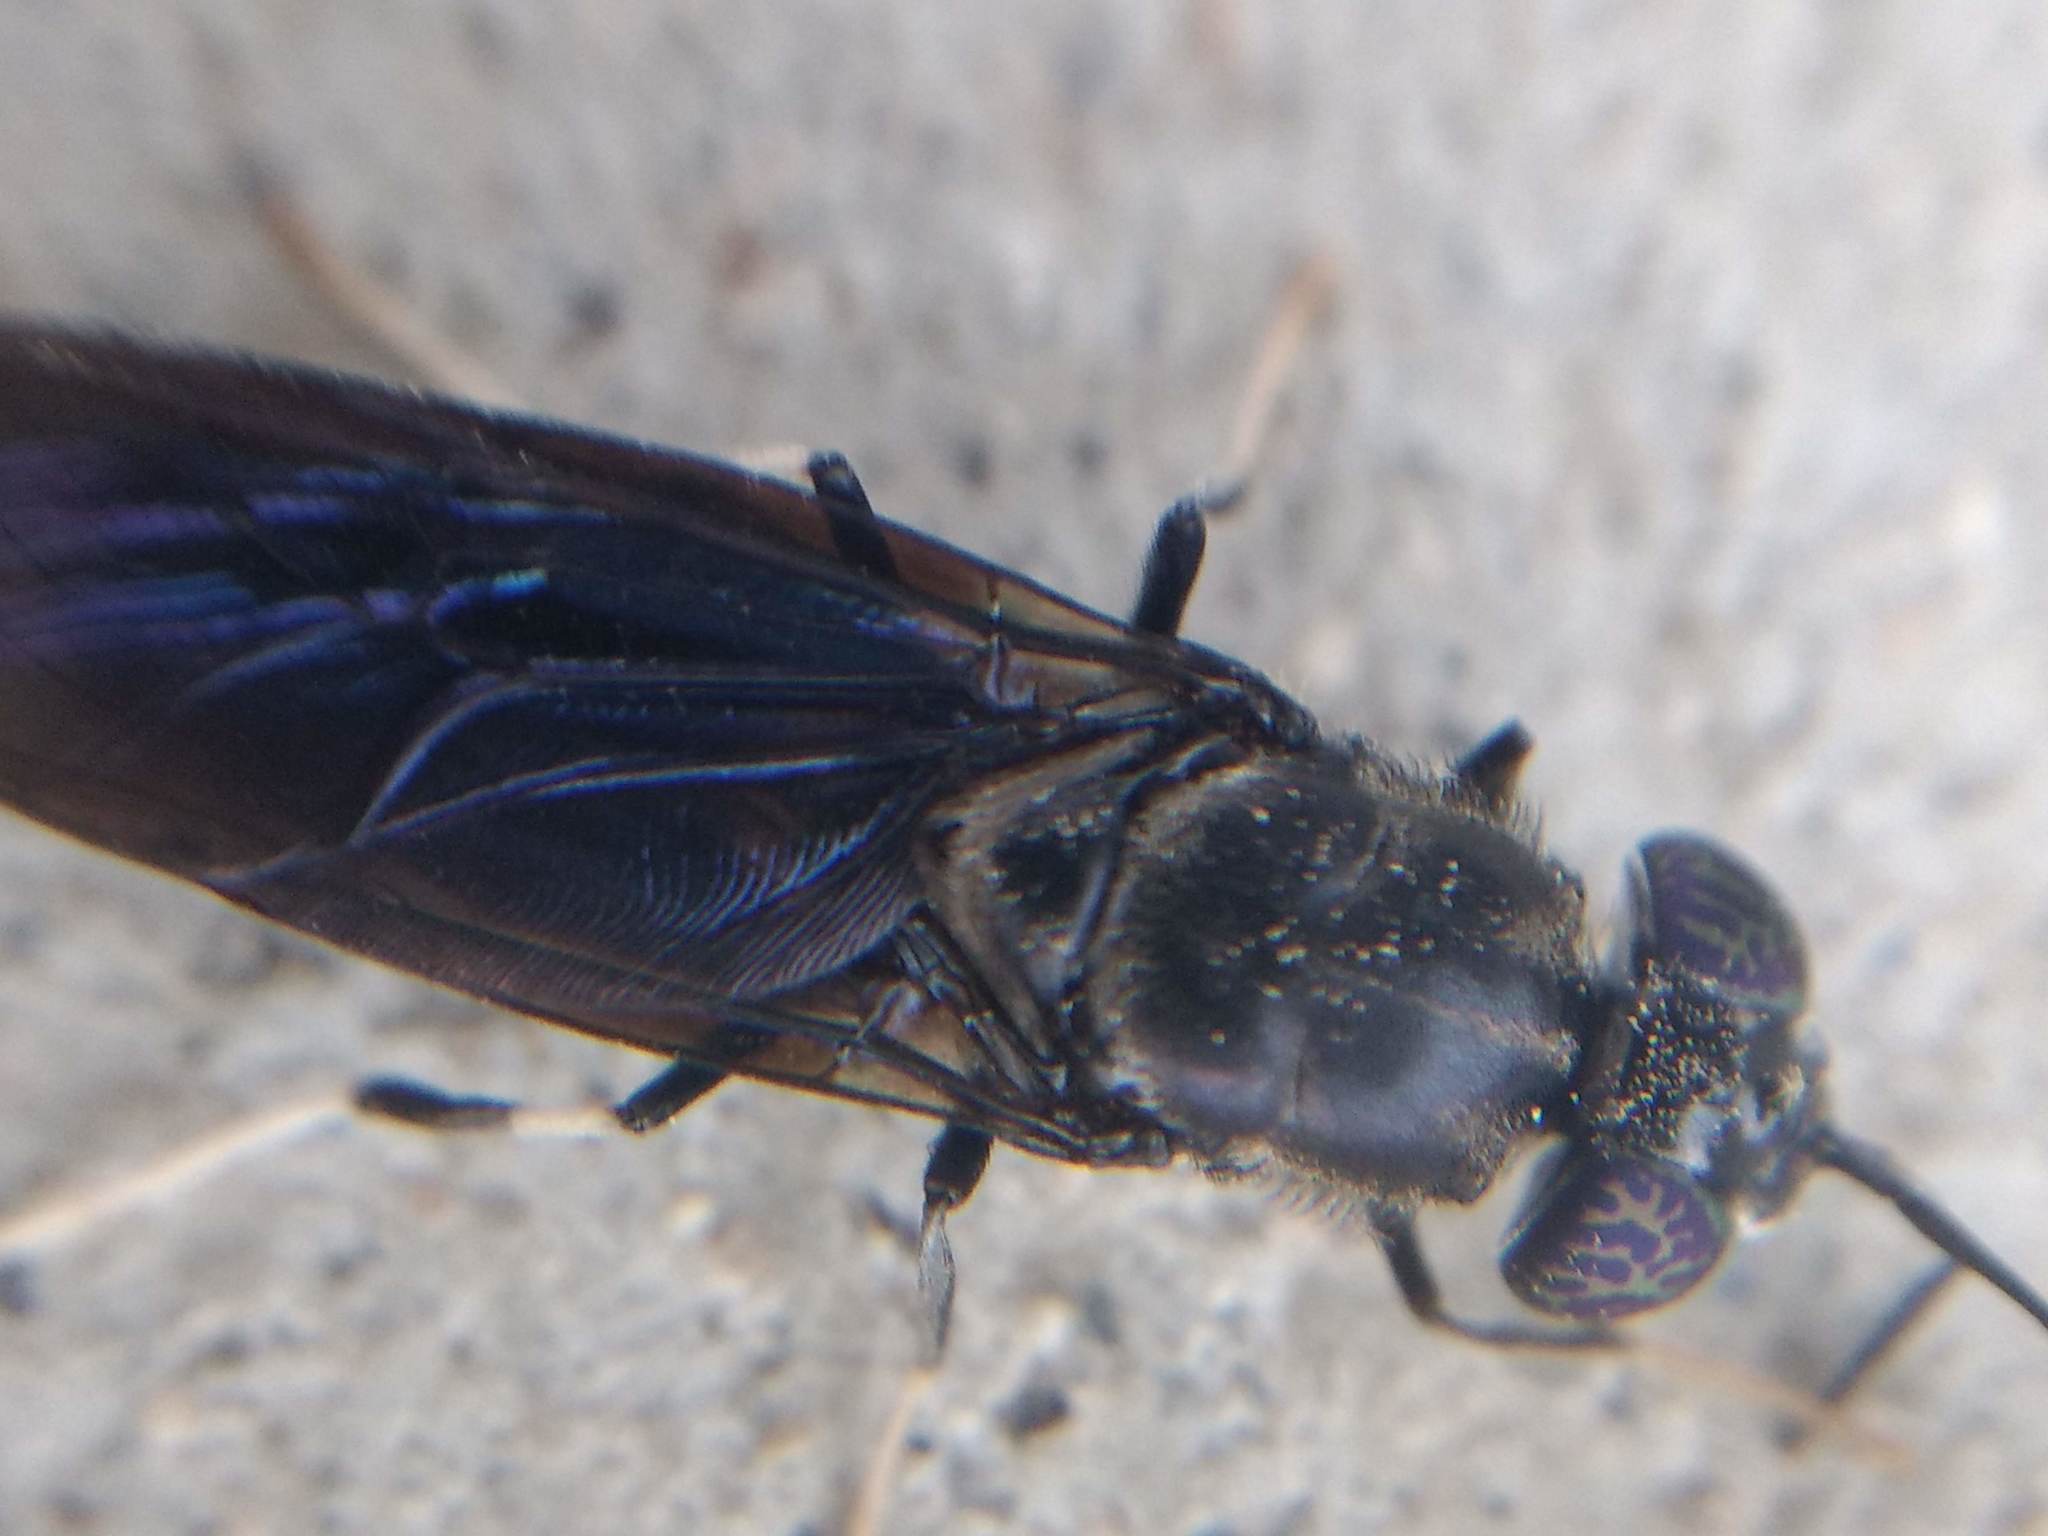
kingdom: Animalia
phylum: Arthropoda
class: Insecta
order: Diptera
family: Stratiomyidae
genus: Hermetia
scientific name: Hermetia illucens
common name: Black soldier fly
